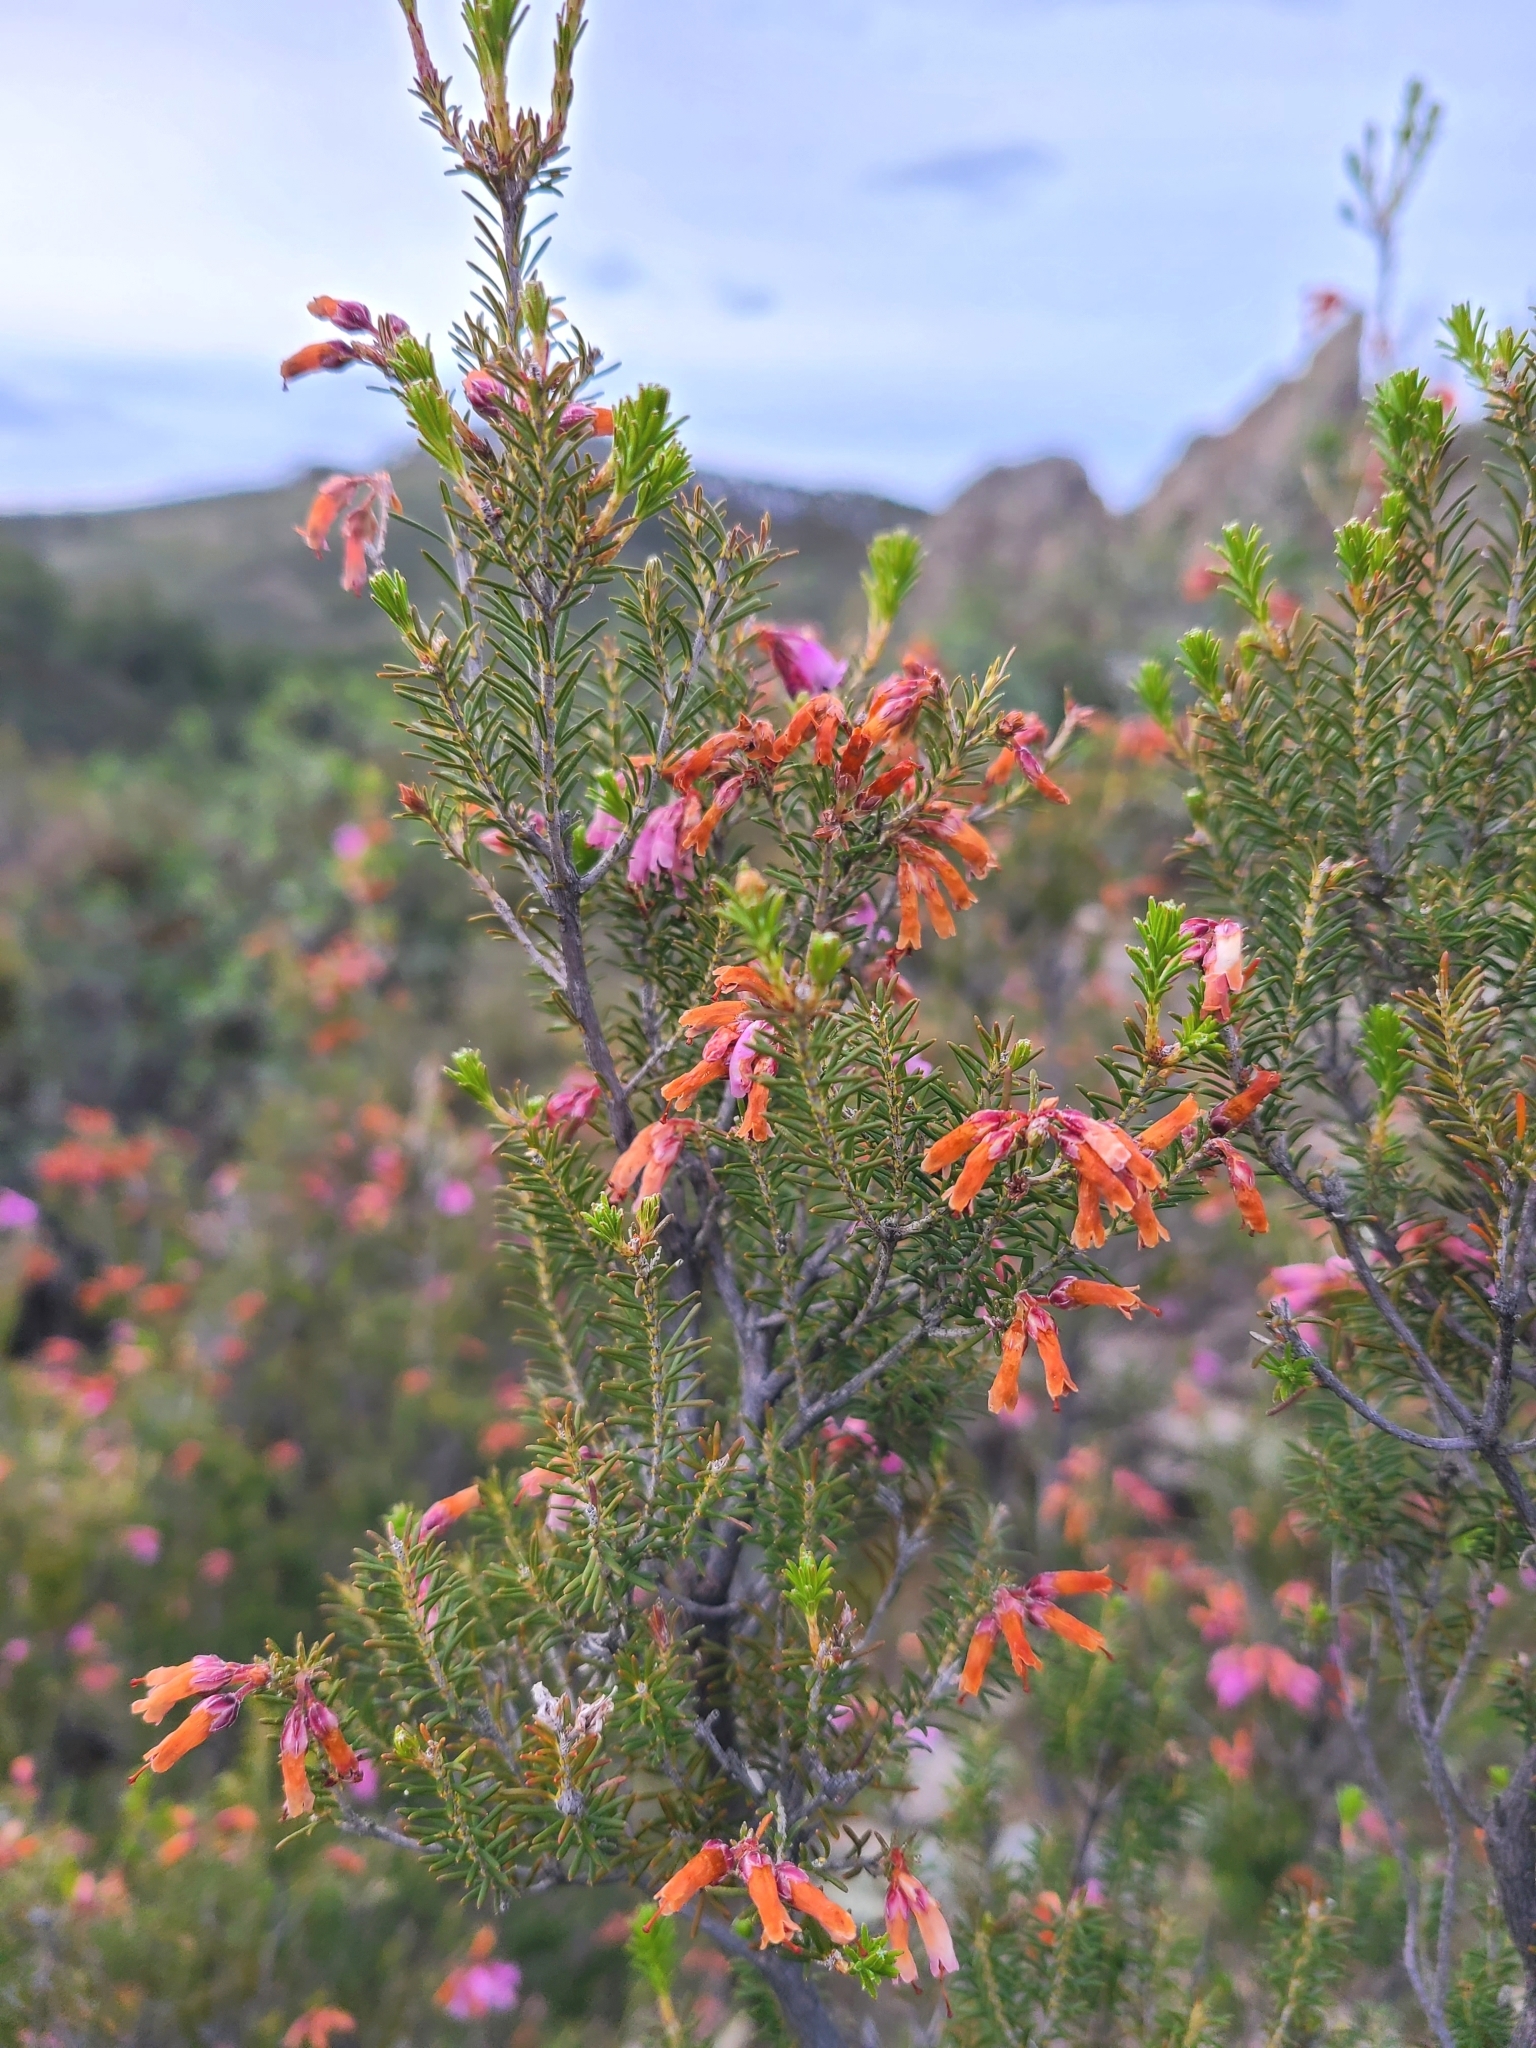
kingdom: Plantae
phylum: Tracheophyta
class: Magnoliopsida
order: Ericales
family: Ericaceae
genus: Erica
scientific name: Erica australis
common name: Spanish heath
